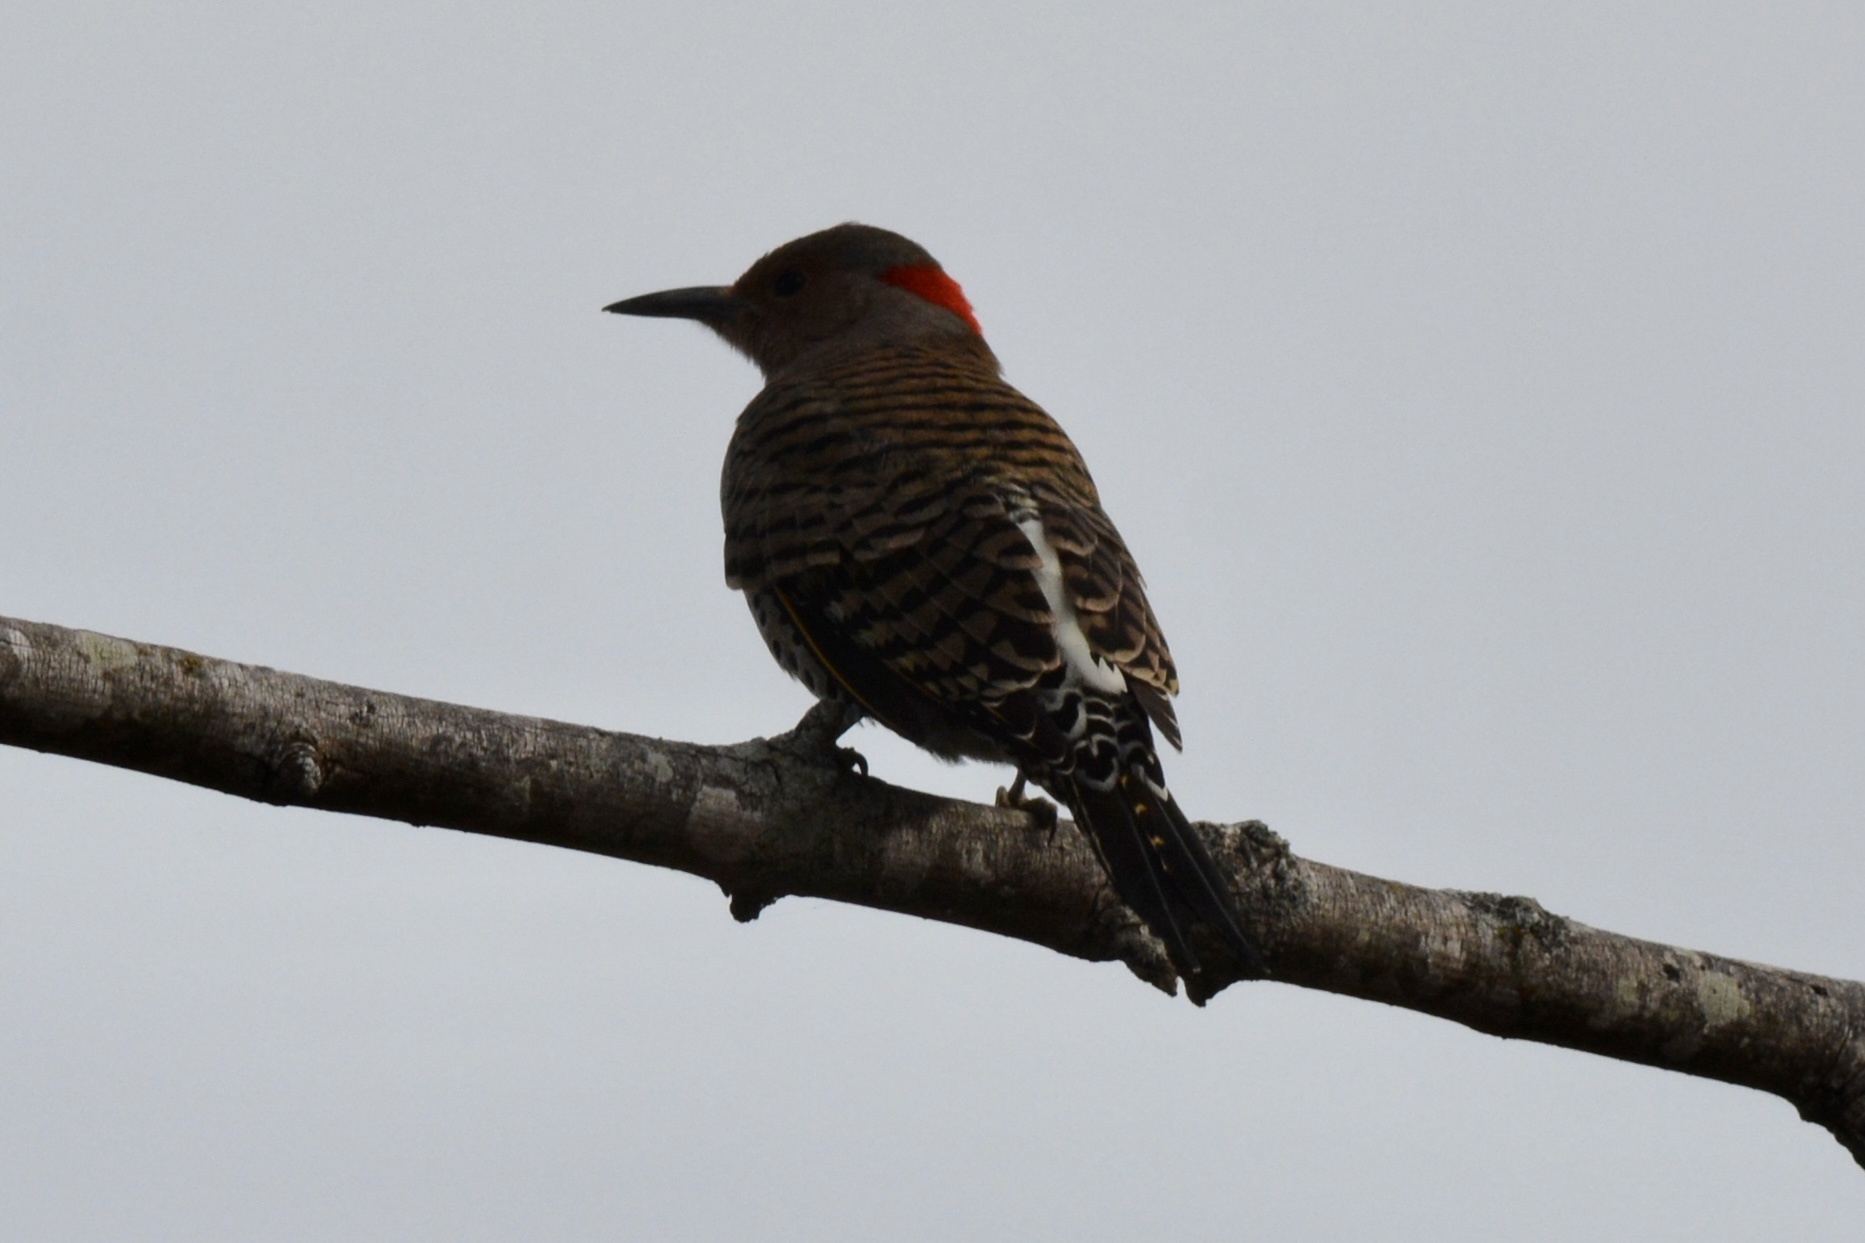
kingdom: Animalia
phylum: Chordata
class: Aves
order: Piciformes
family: Picidae
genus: Colaptes
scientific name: Colaptes auratus
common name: Northern flicker
